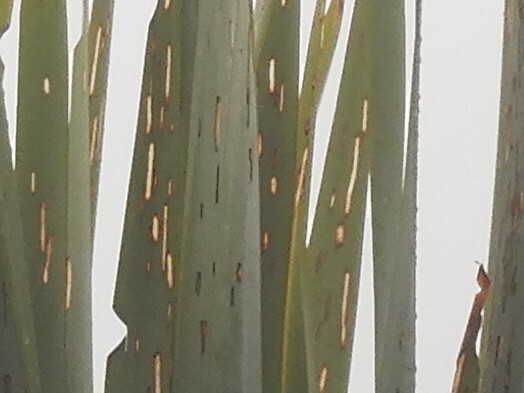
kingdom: Animalia
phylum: Arthropoda
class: Insecta
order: Lepidoptera
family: Geometridae
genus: Orthoclydon
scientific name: Orthoclydon praefectata
